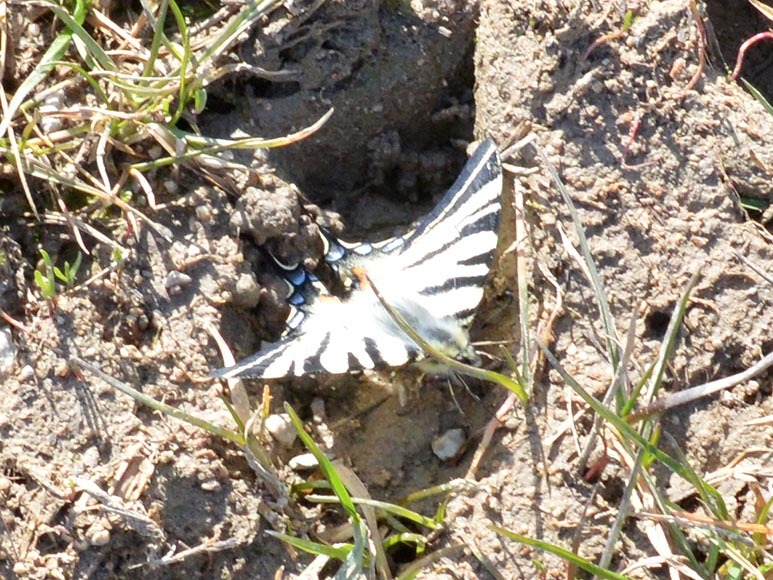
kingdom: Animalia
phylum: Arthropoda
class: Insecta
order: Lepidoptera
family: Papilionidae
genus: Iphiclides
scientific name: Iphiclides podalirius
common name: Scarce swallowtail
